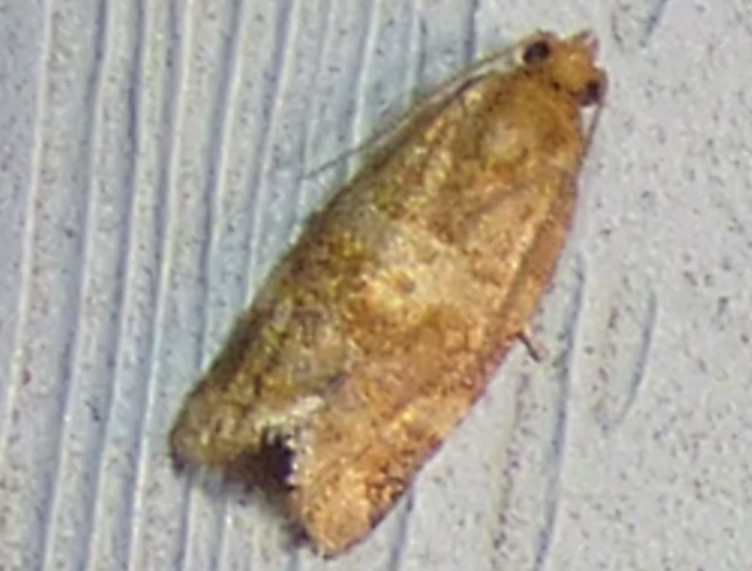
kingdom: Animalia
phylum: Arthropoda
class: Insecta
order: Lepidoptera
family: Tortricidae
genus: Argyrotaenia
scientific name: Argyrotaenia pinatubana
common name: Pine tube moth
